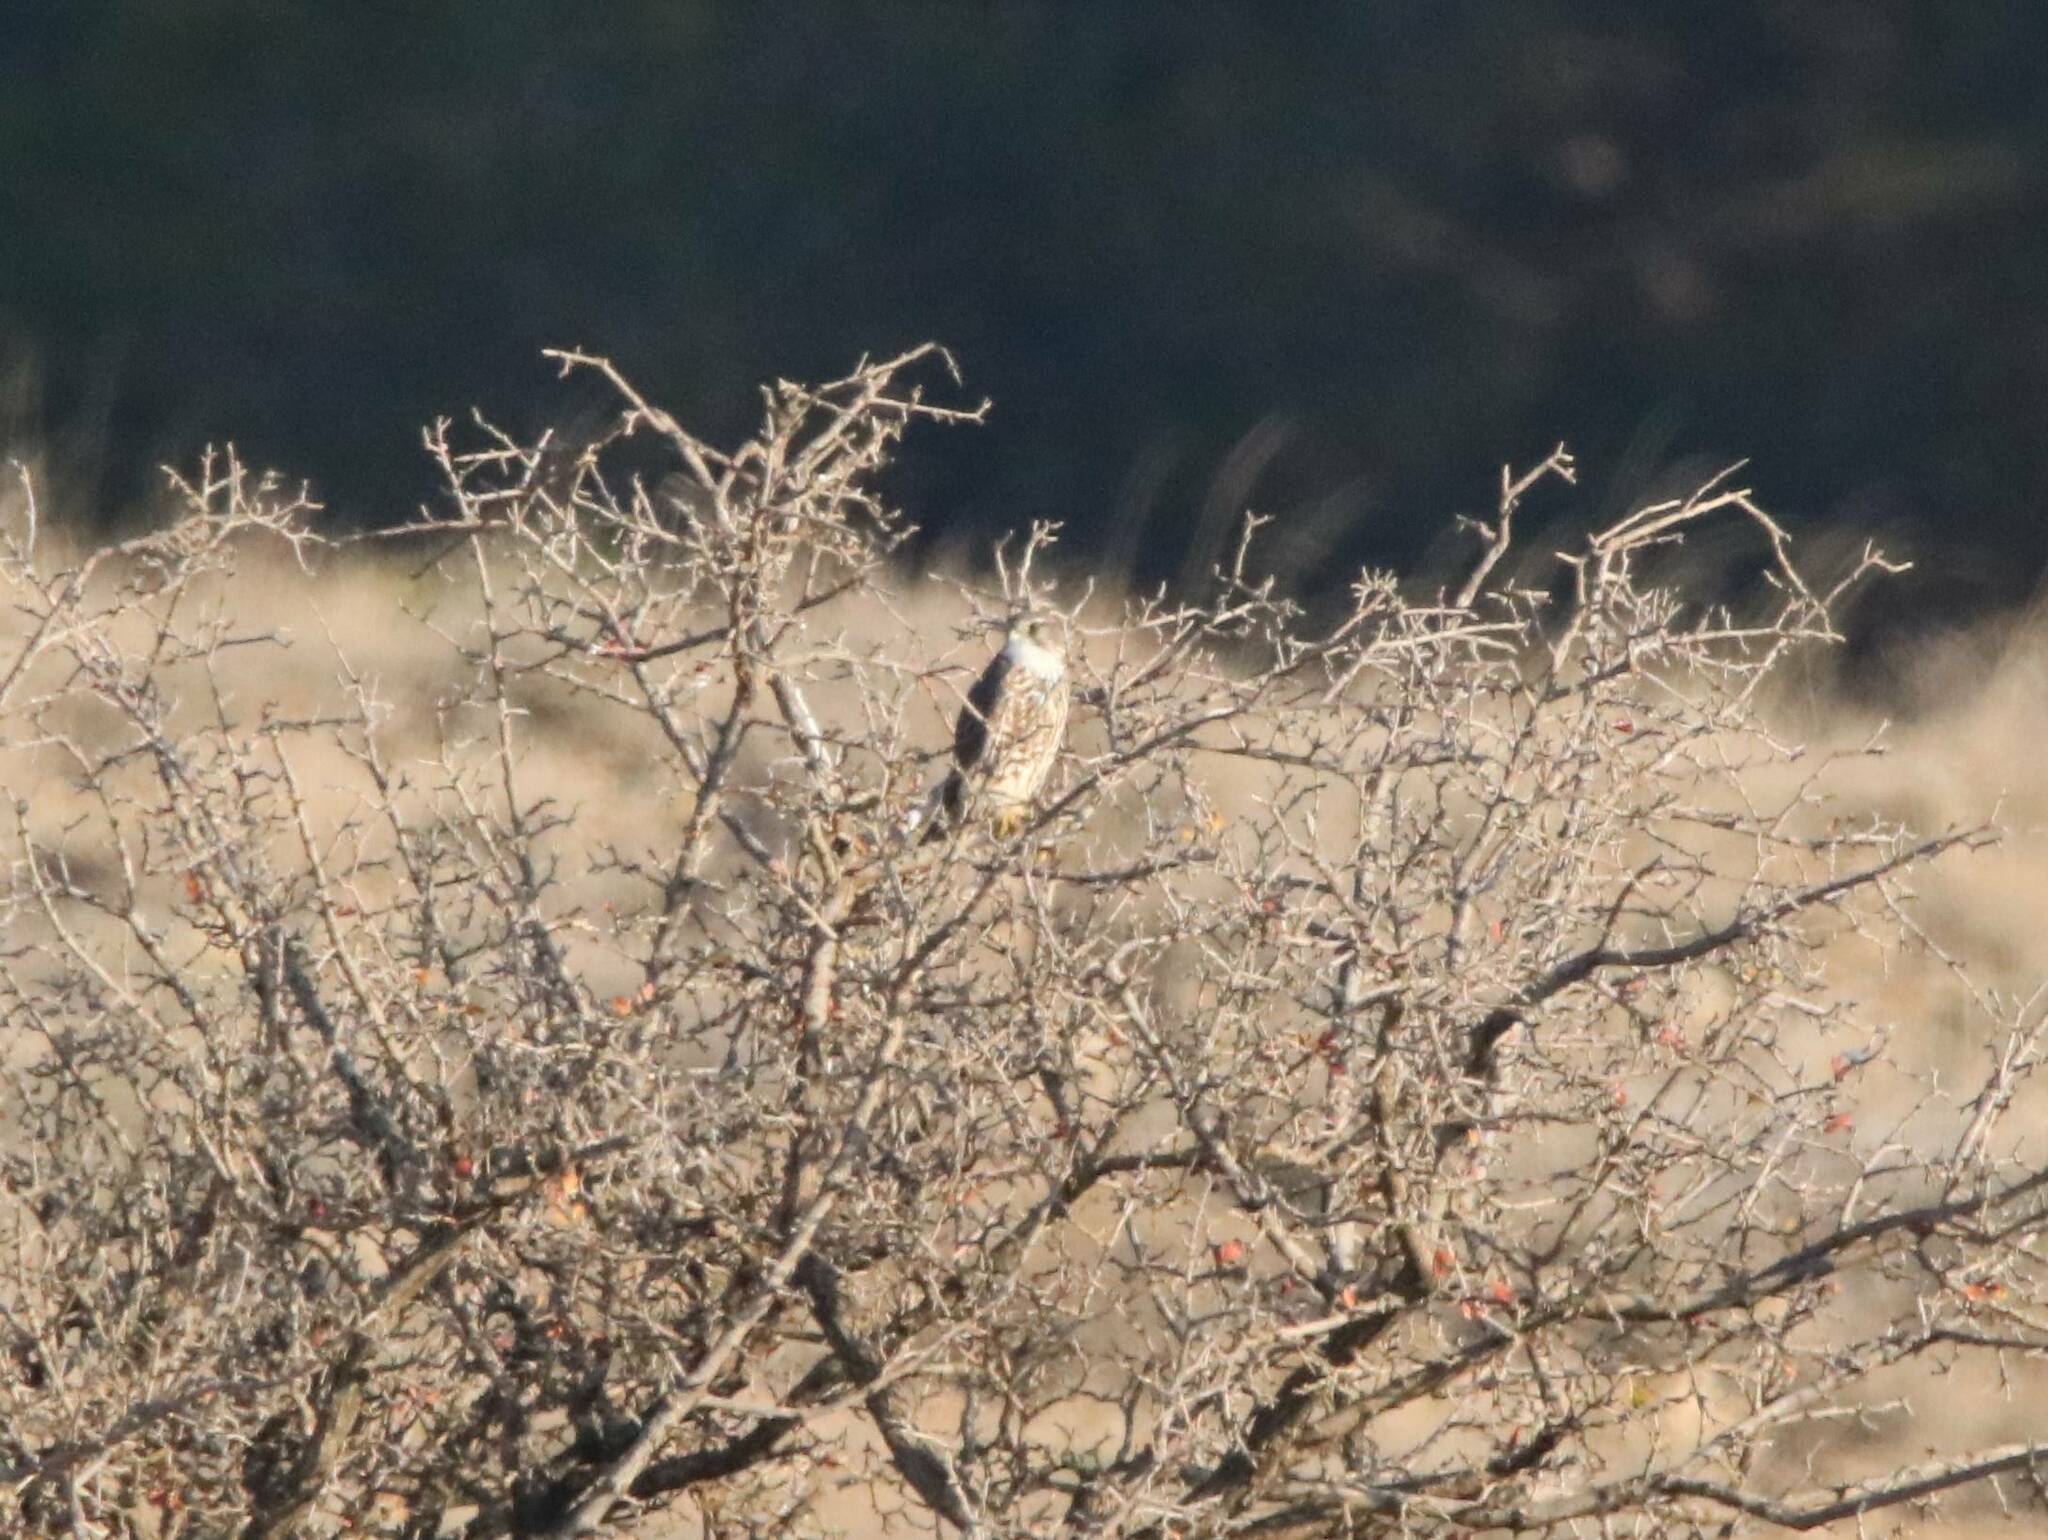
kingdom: Animalia
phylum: Chordata
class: Aves
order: Falconiformes
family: Falconidae
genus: Falco
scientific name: Falco columbarius
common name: Merlin
